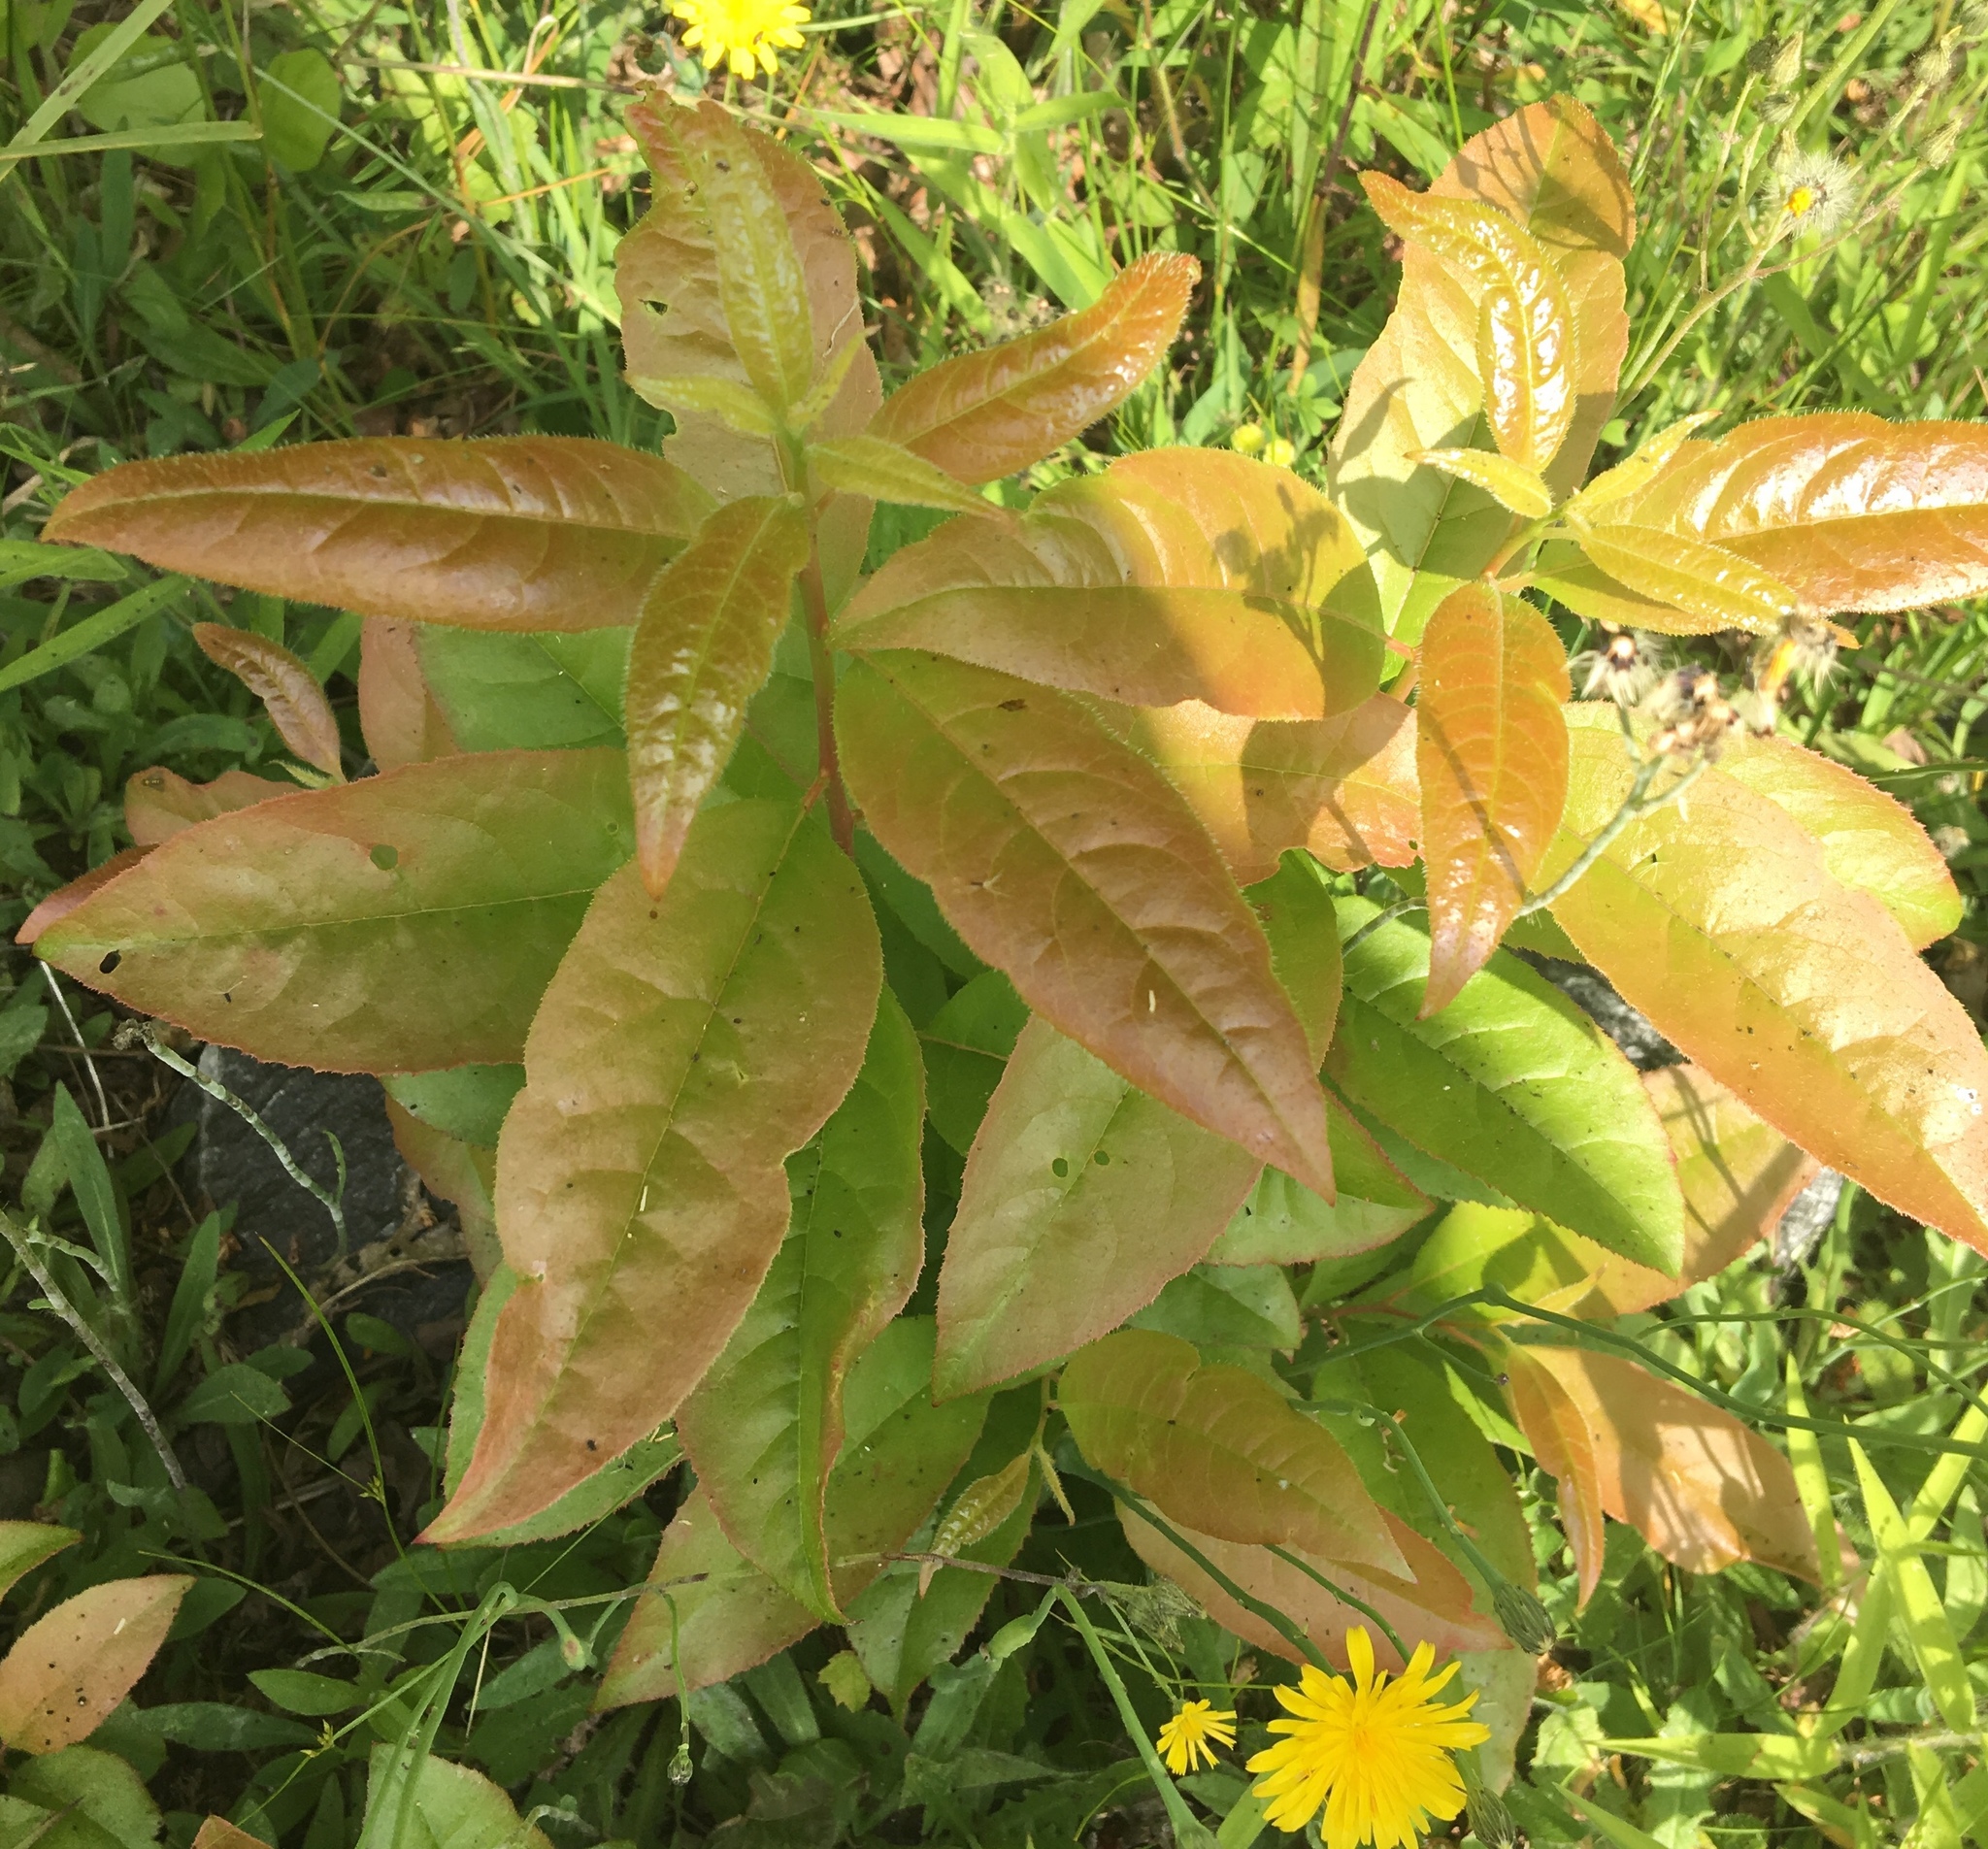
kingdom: Plantae
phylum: Tracheophyta
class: Magnoliopsida
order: Ericales
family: Ericaceae
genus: Oxydendrum
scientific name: Oxydendrum arboreum
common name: Sourwood
